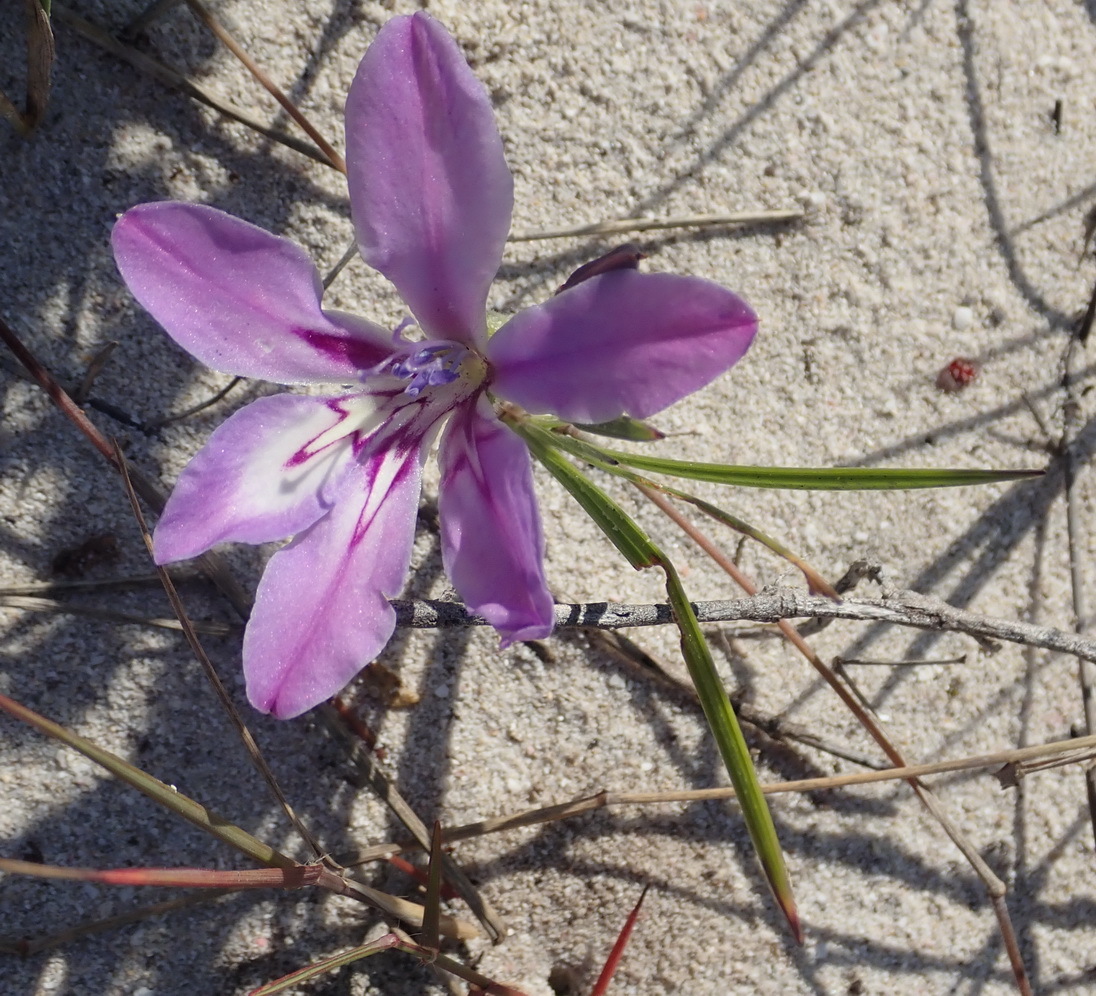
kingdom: Plantae
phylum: Tracheophyta
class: Liliopsida
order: Asparagales
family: Iridaceae
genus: Babiana
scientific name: Babiana ambigua
